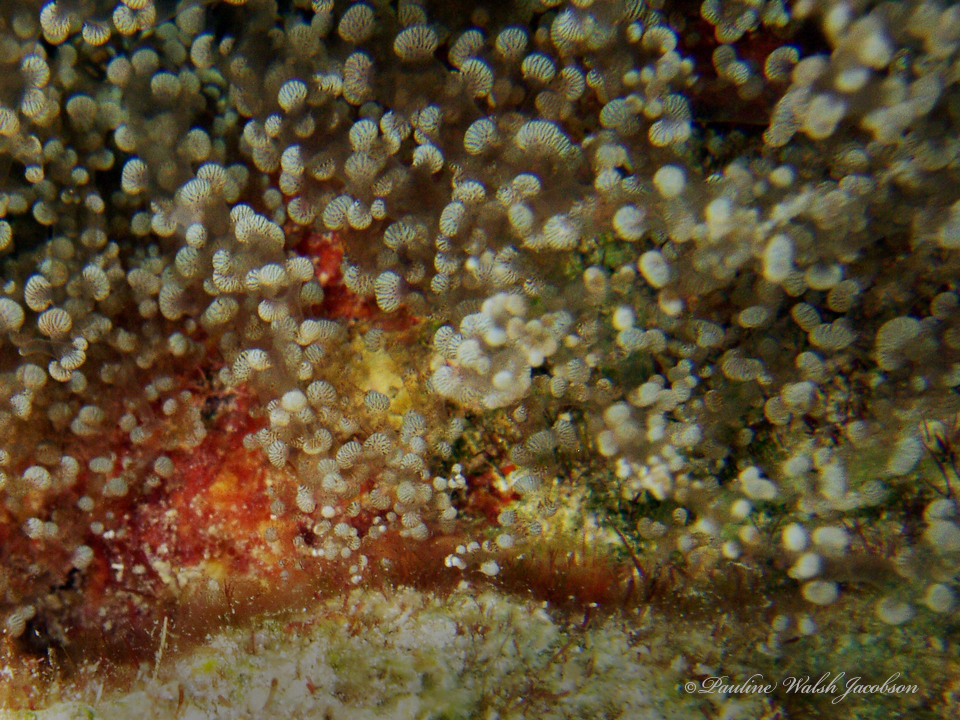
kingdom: Animalia
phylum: Cnidaria
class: Anthozoa
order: Actiniaria
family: Aiptasiidae
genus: Laviactis
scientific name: Laviactis lucida
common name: Atlantic beaded anemone
